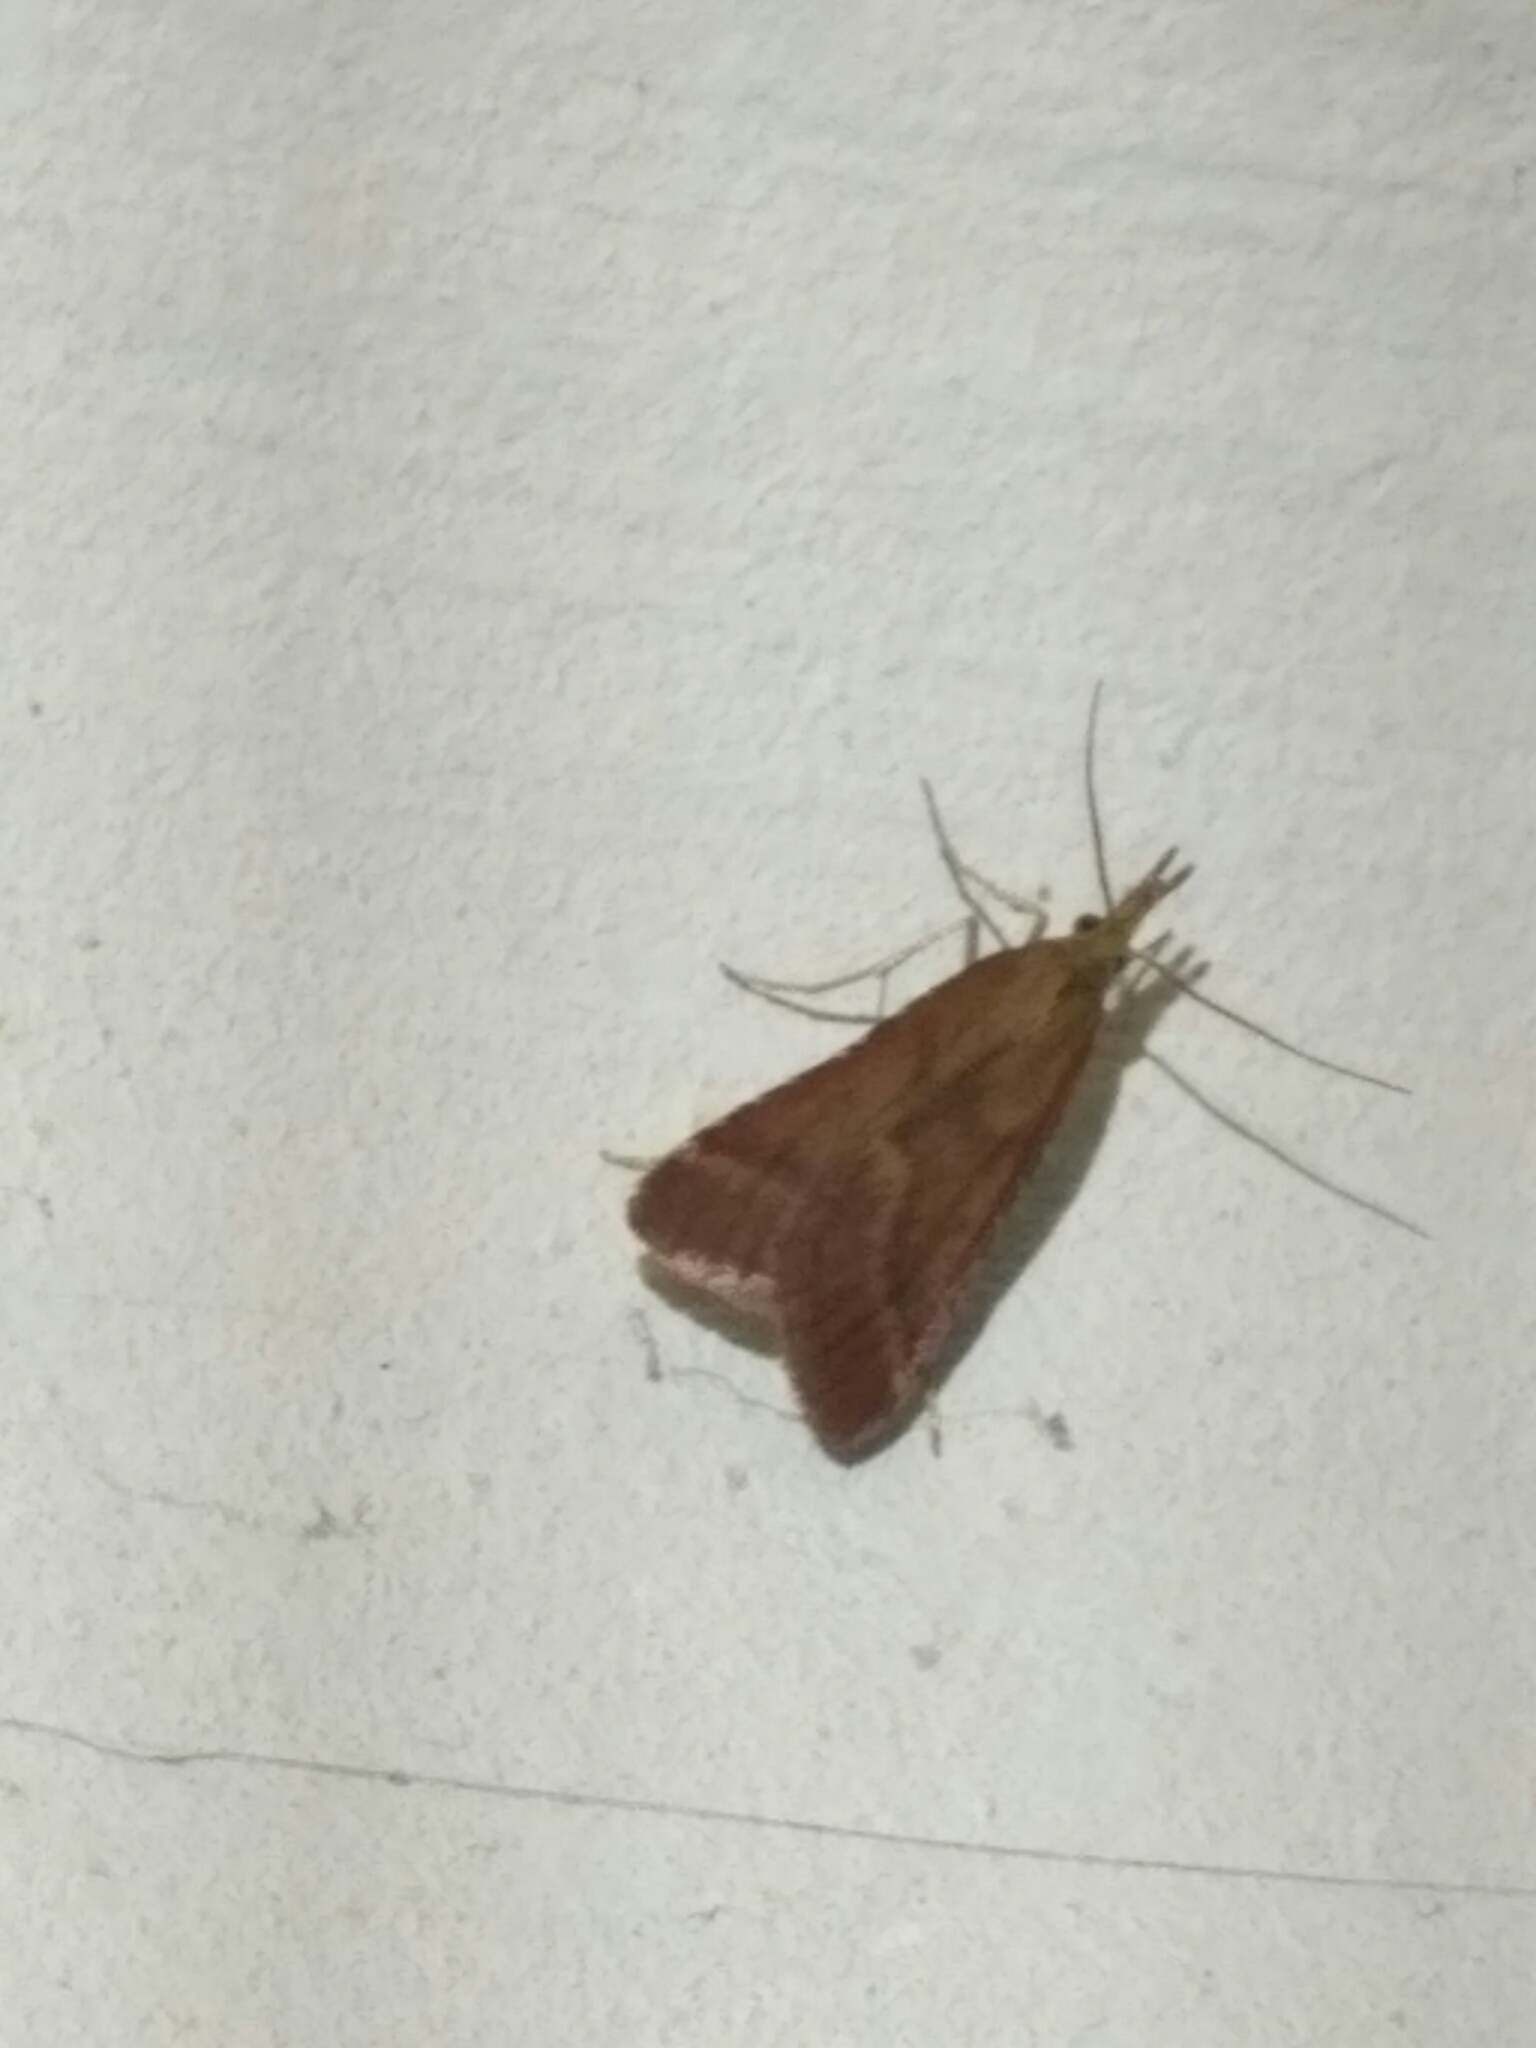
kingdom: Animalia
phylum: Arthropoda
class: Insecta
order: Lepidoptera
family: Pyralidae
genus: Synaphe
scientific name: Synaphe punctalis
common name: Long-legged tabby
